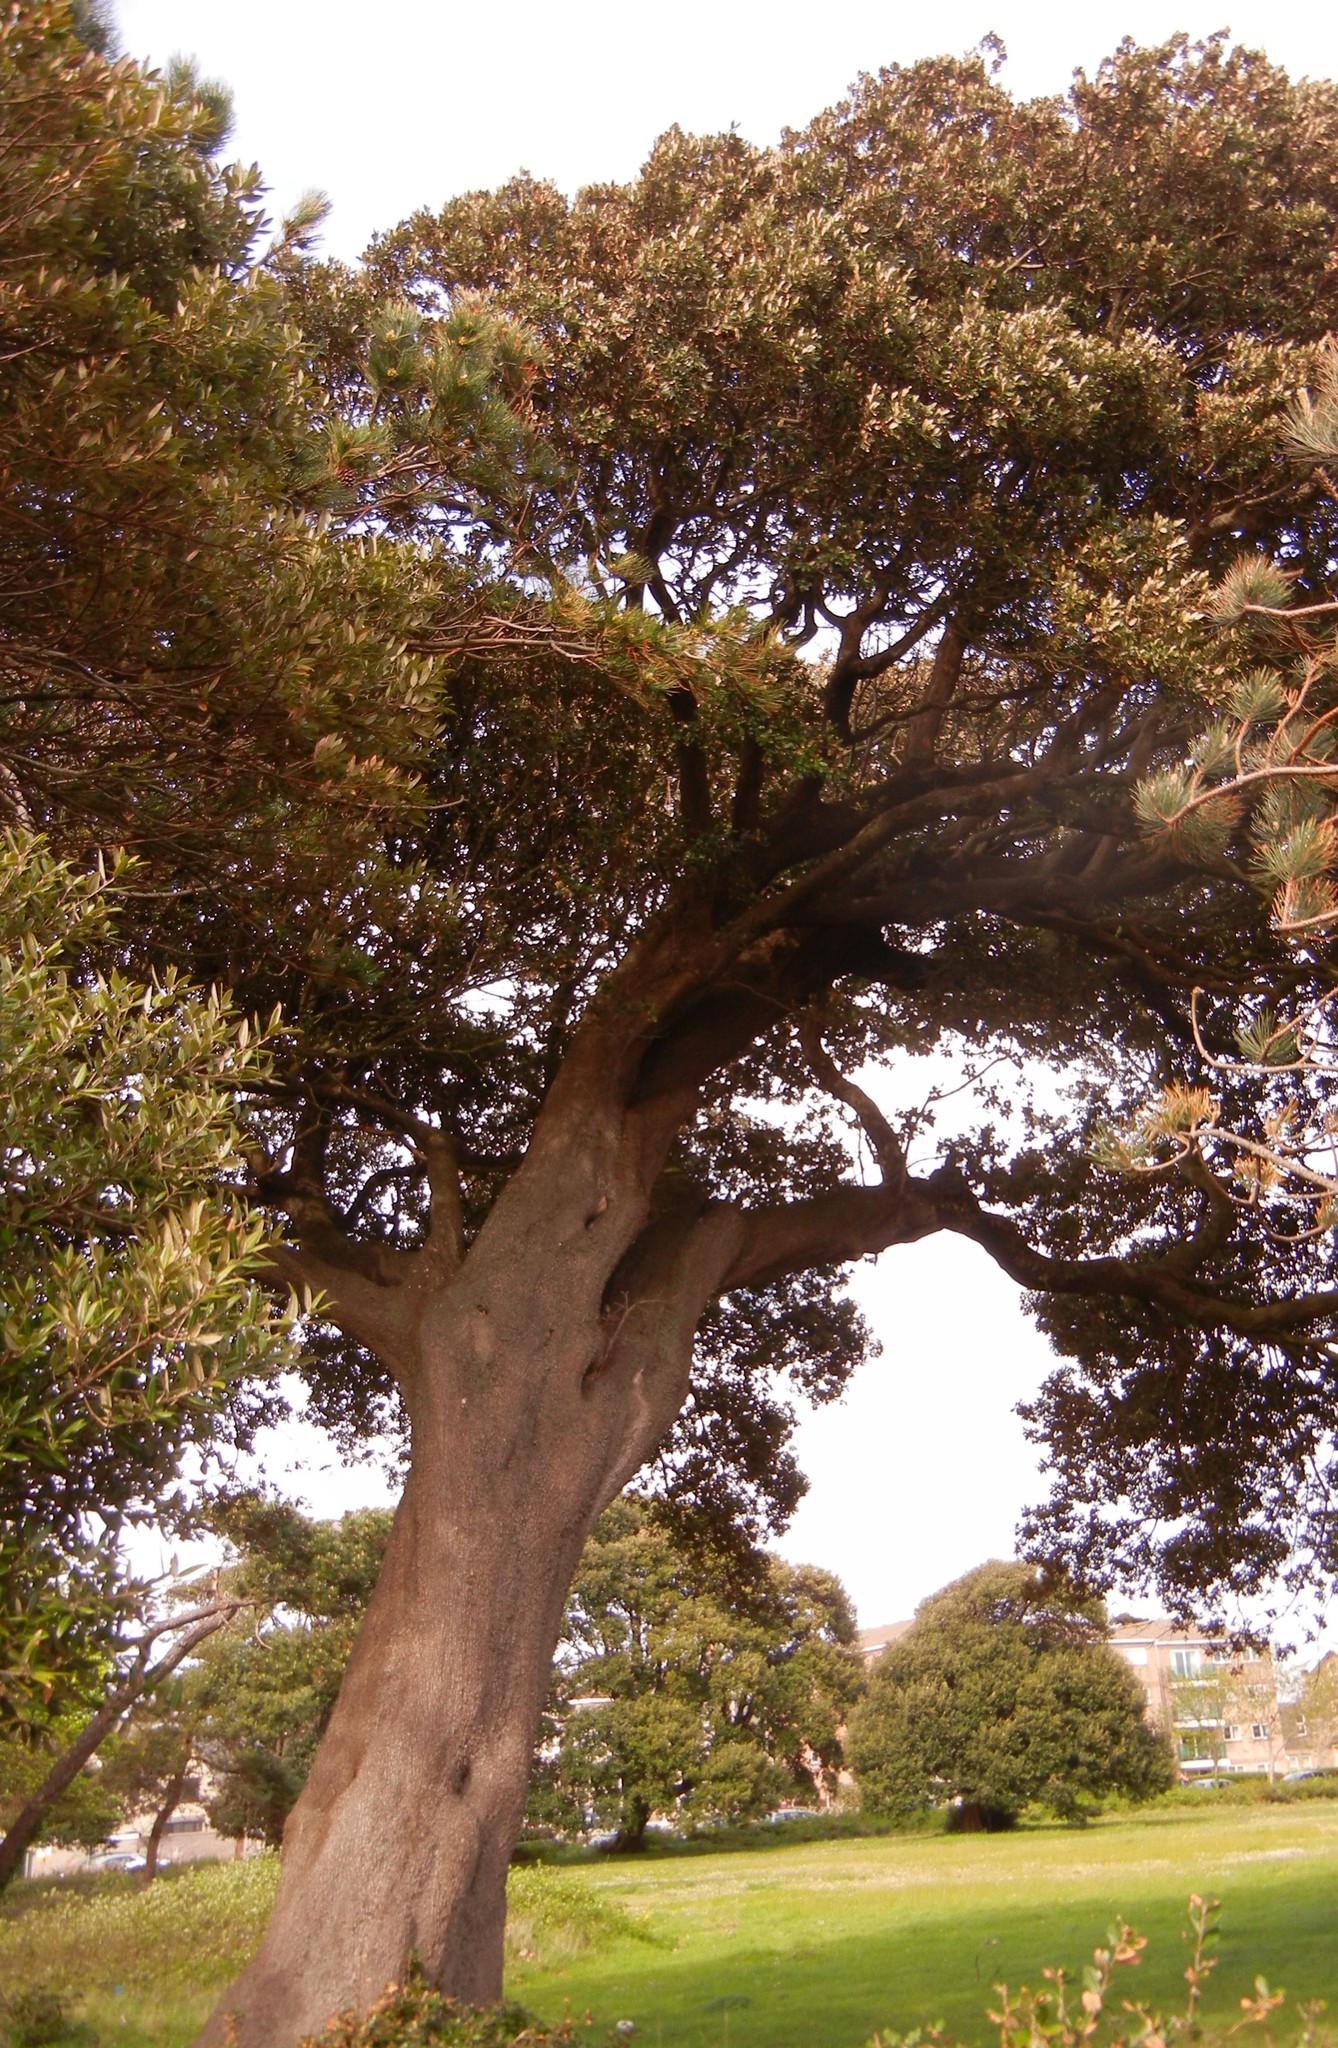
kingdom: Plantae
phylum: Tracheophyta
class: Magnoliopsida
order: Fagales
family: Fagaceae
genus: Quercus
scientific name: Quercus ilex
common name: Evergreen oak
